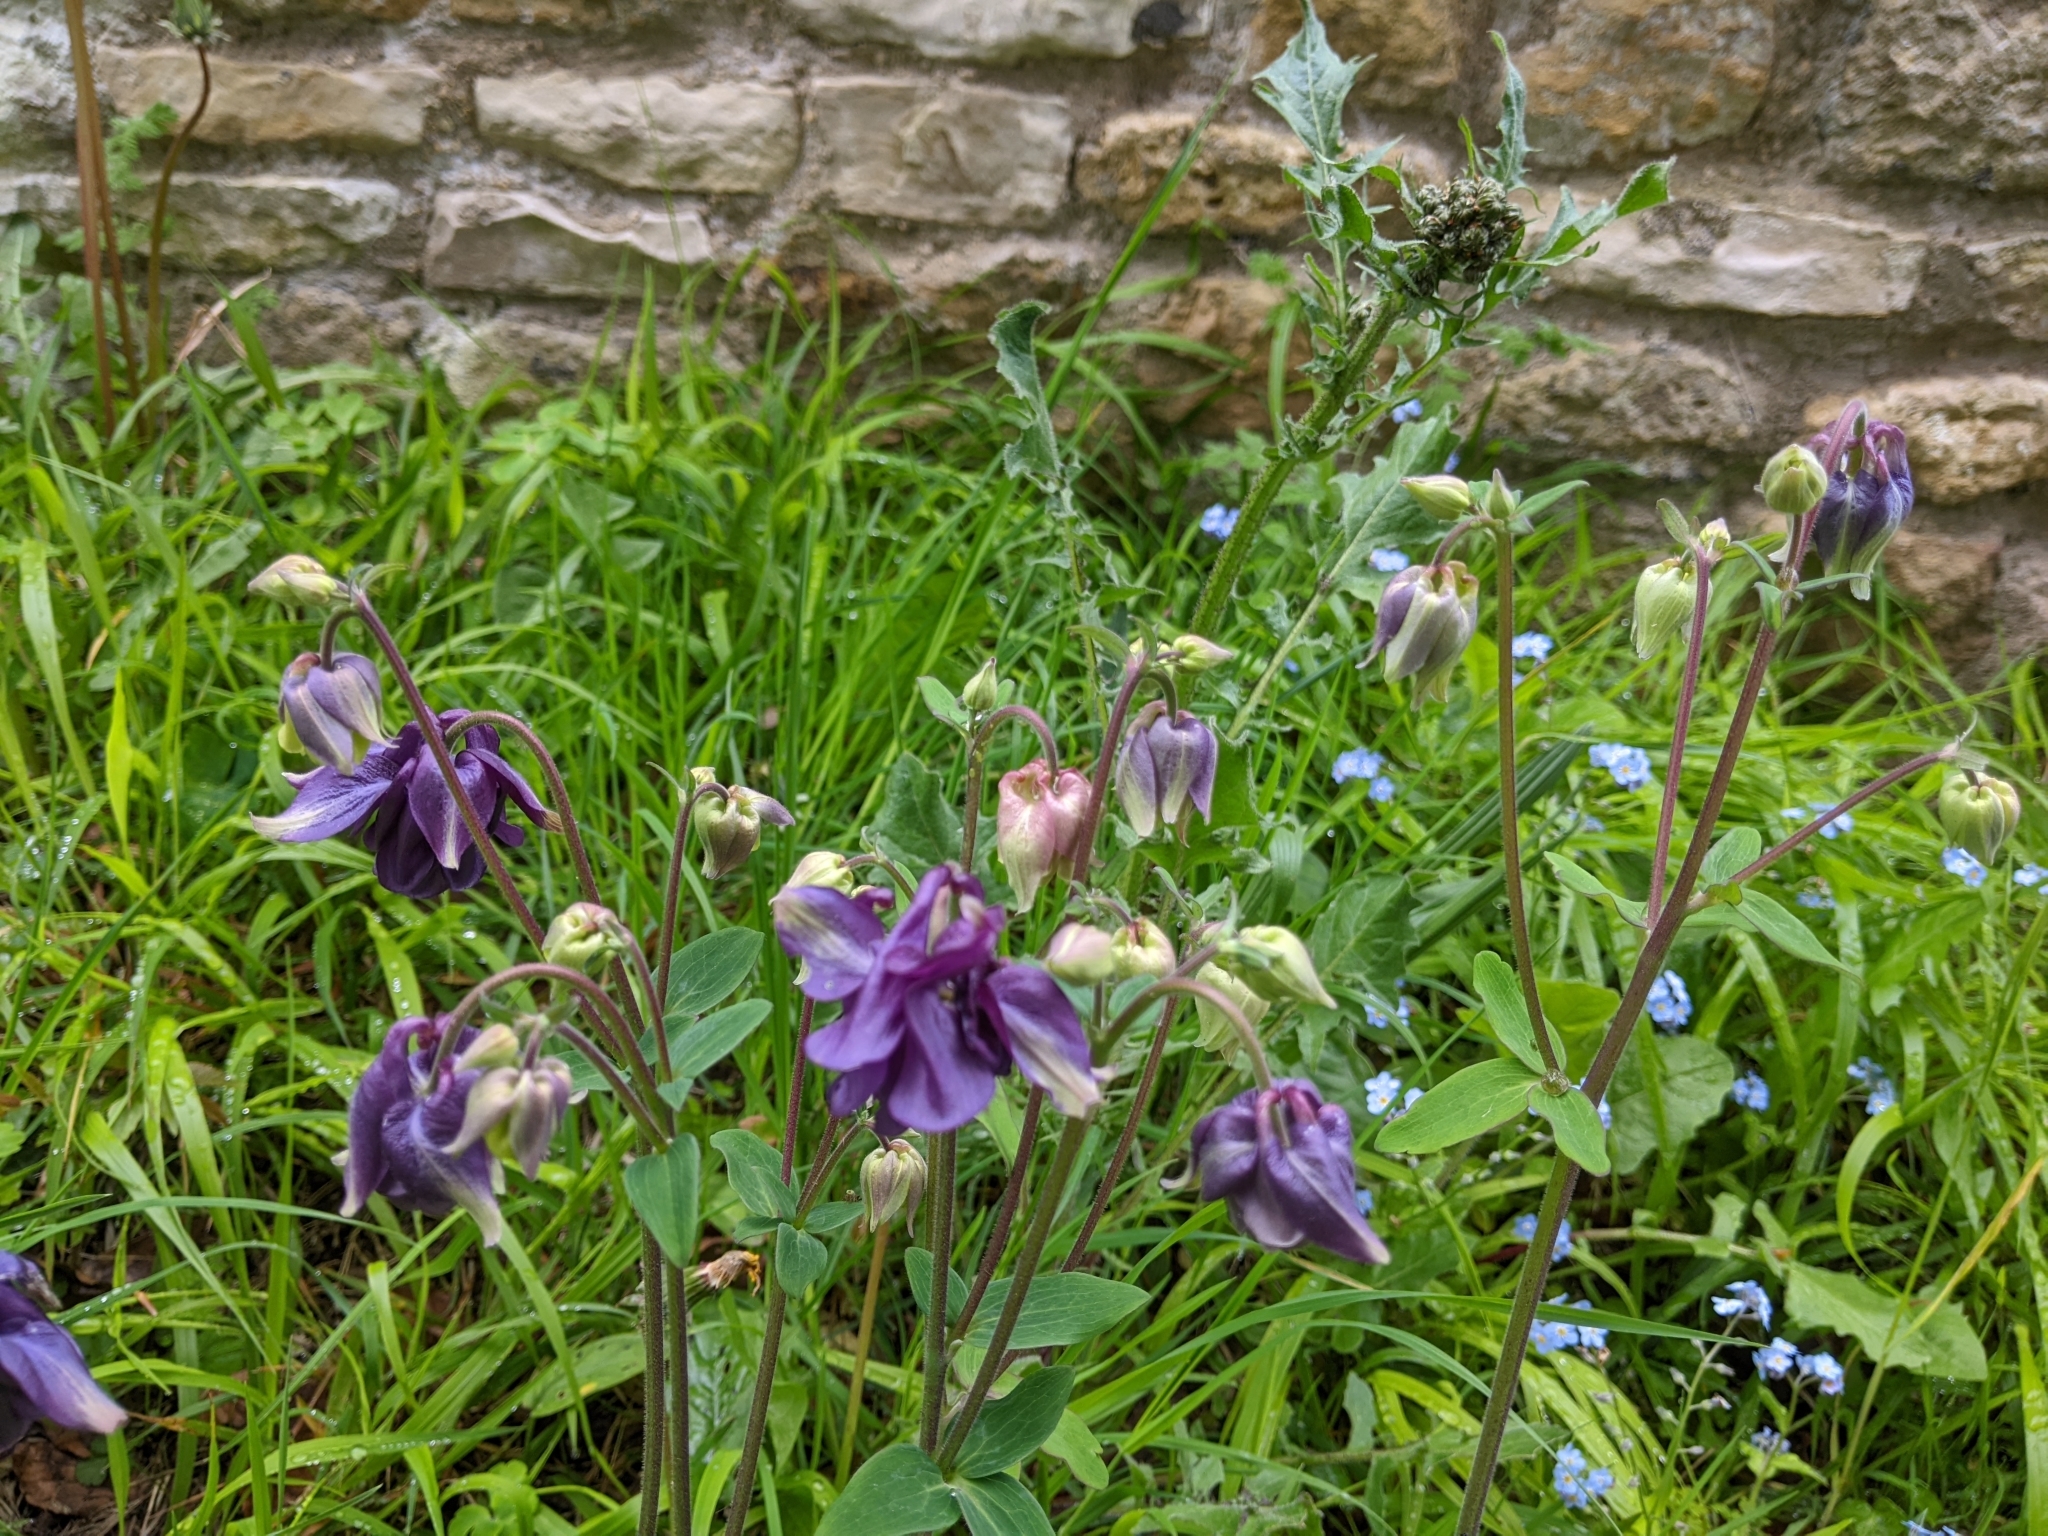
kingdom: Plantae
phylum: Tracheophyta
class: Magnoliopsida
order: Ranunculales
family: Ranunculaceae
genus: Aquilegia
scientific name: Aquilegia vulgaris
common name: Columbine
